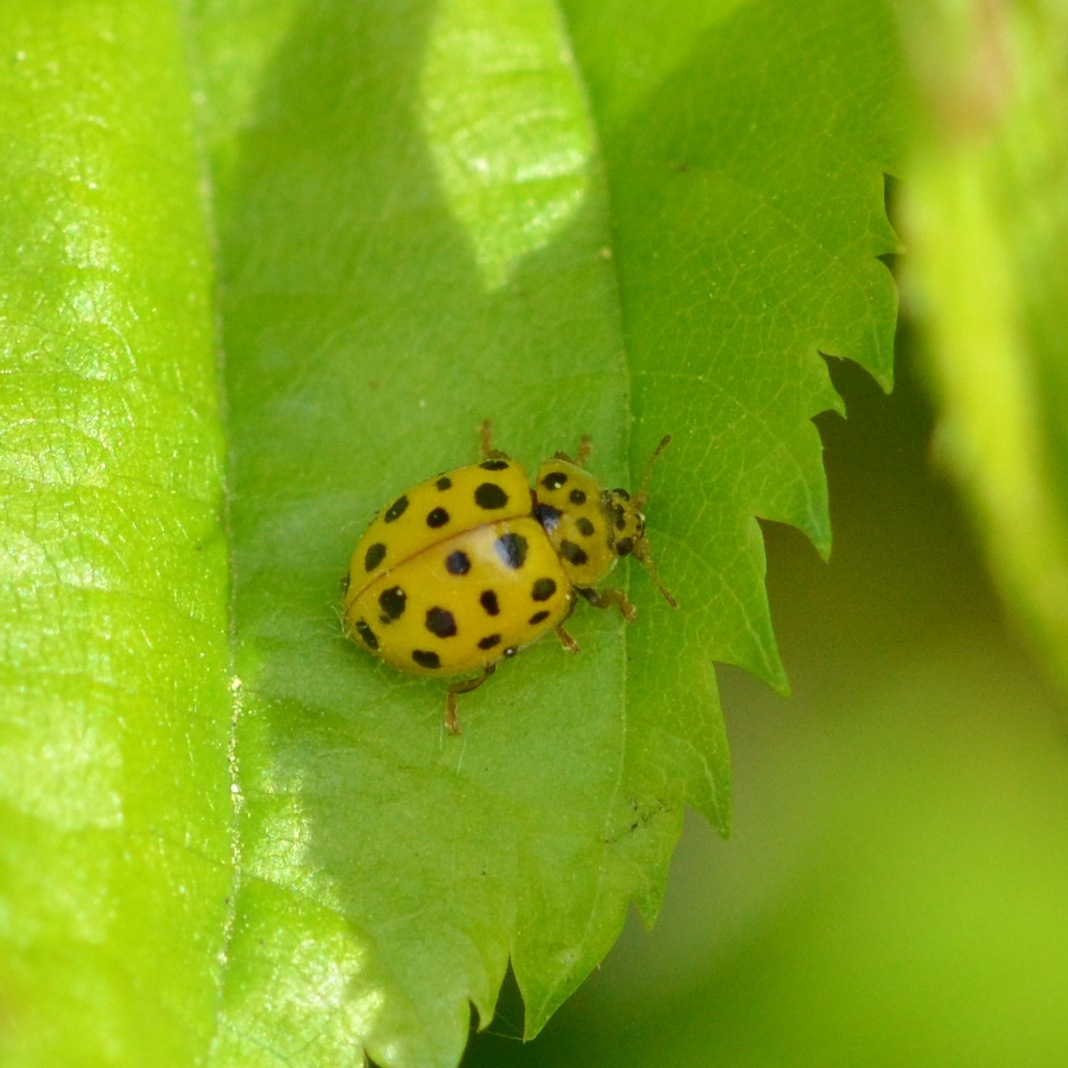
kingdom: Animalia
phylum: Arthropoda
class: Insecta
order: Coleoptera
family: Coccinellidae
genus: Psyllobora
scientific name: Psyllobora vigintiduopunctata
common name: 22-spot ladybird
